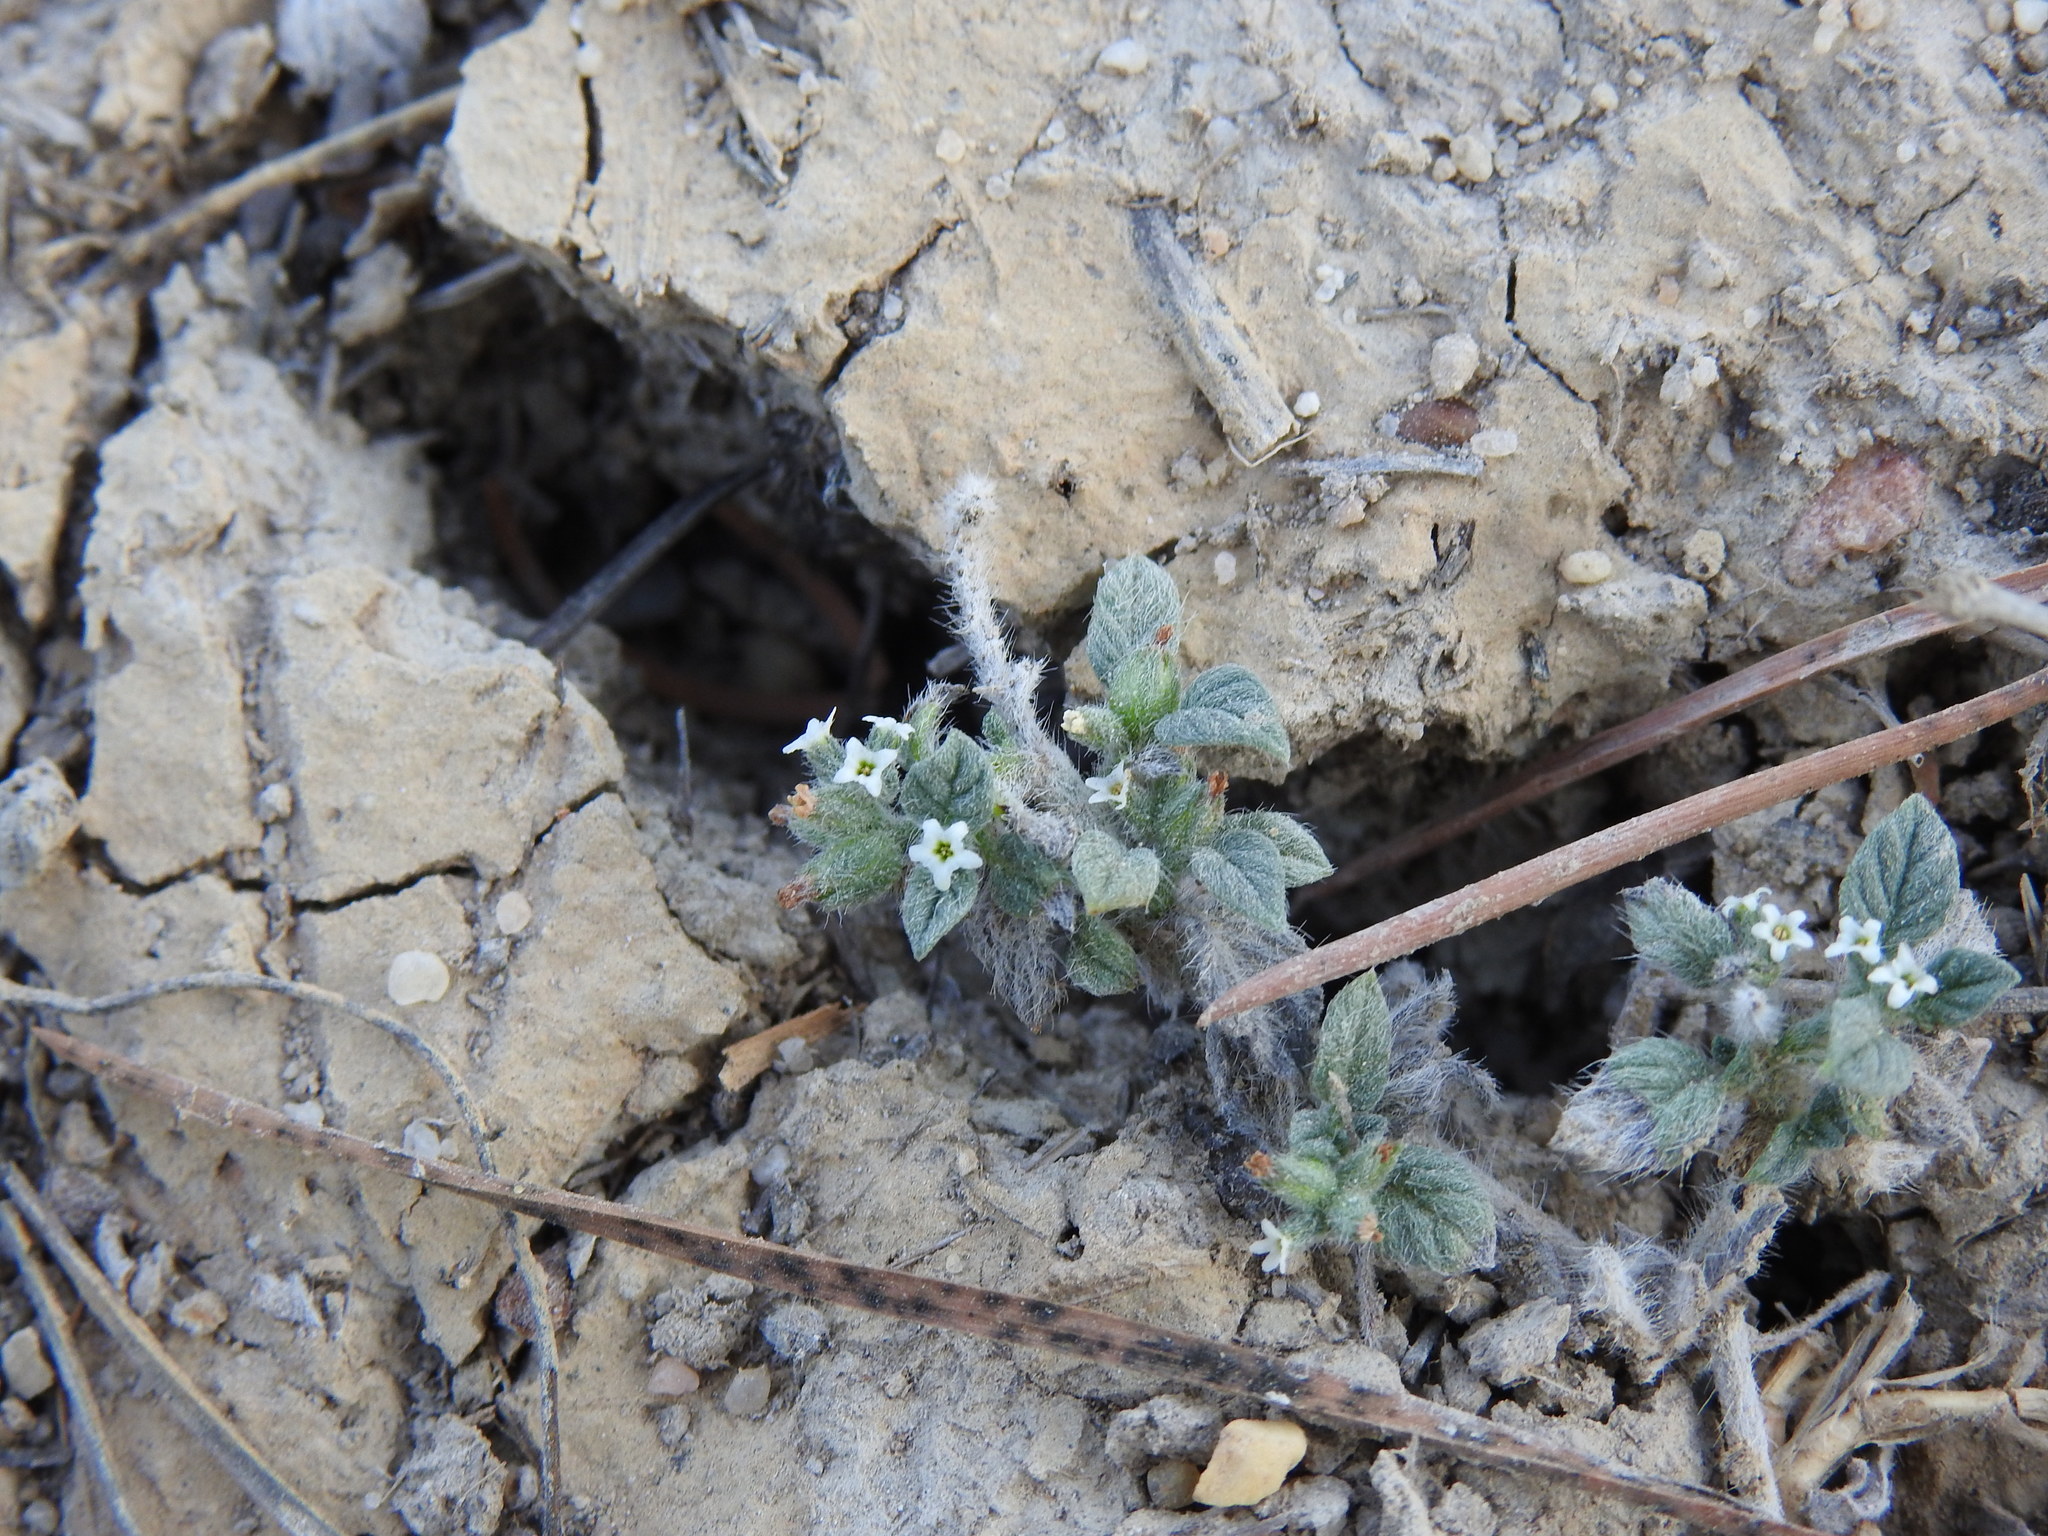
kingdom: Plantae
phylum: Tracheophyta
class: Magnoliopsida
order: Boraginales
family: Heliotropiaceae
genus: Heliotropium
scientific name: Heliotropium supinum
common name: Dwarf heliotrope
